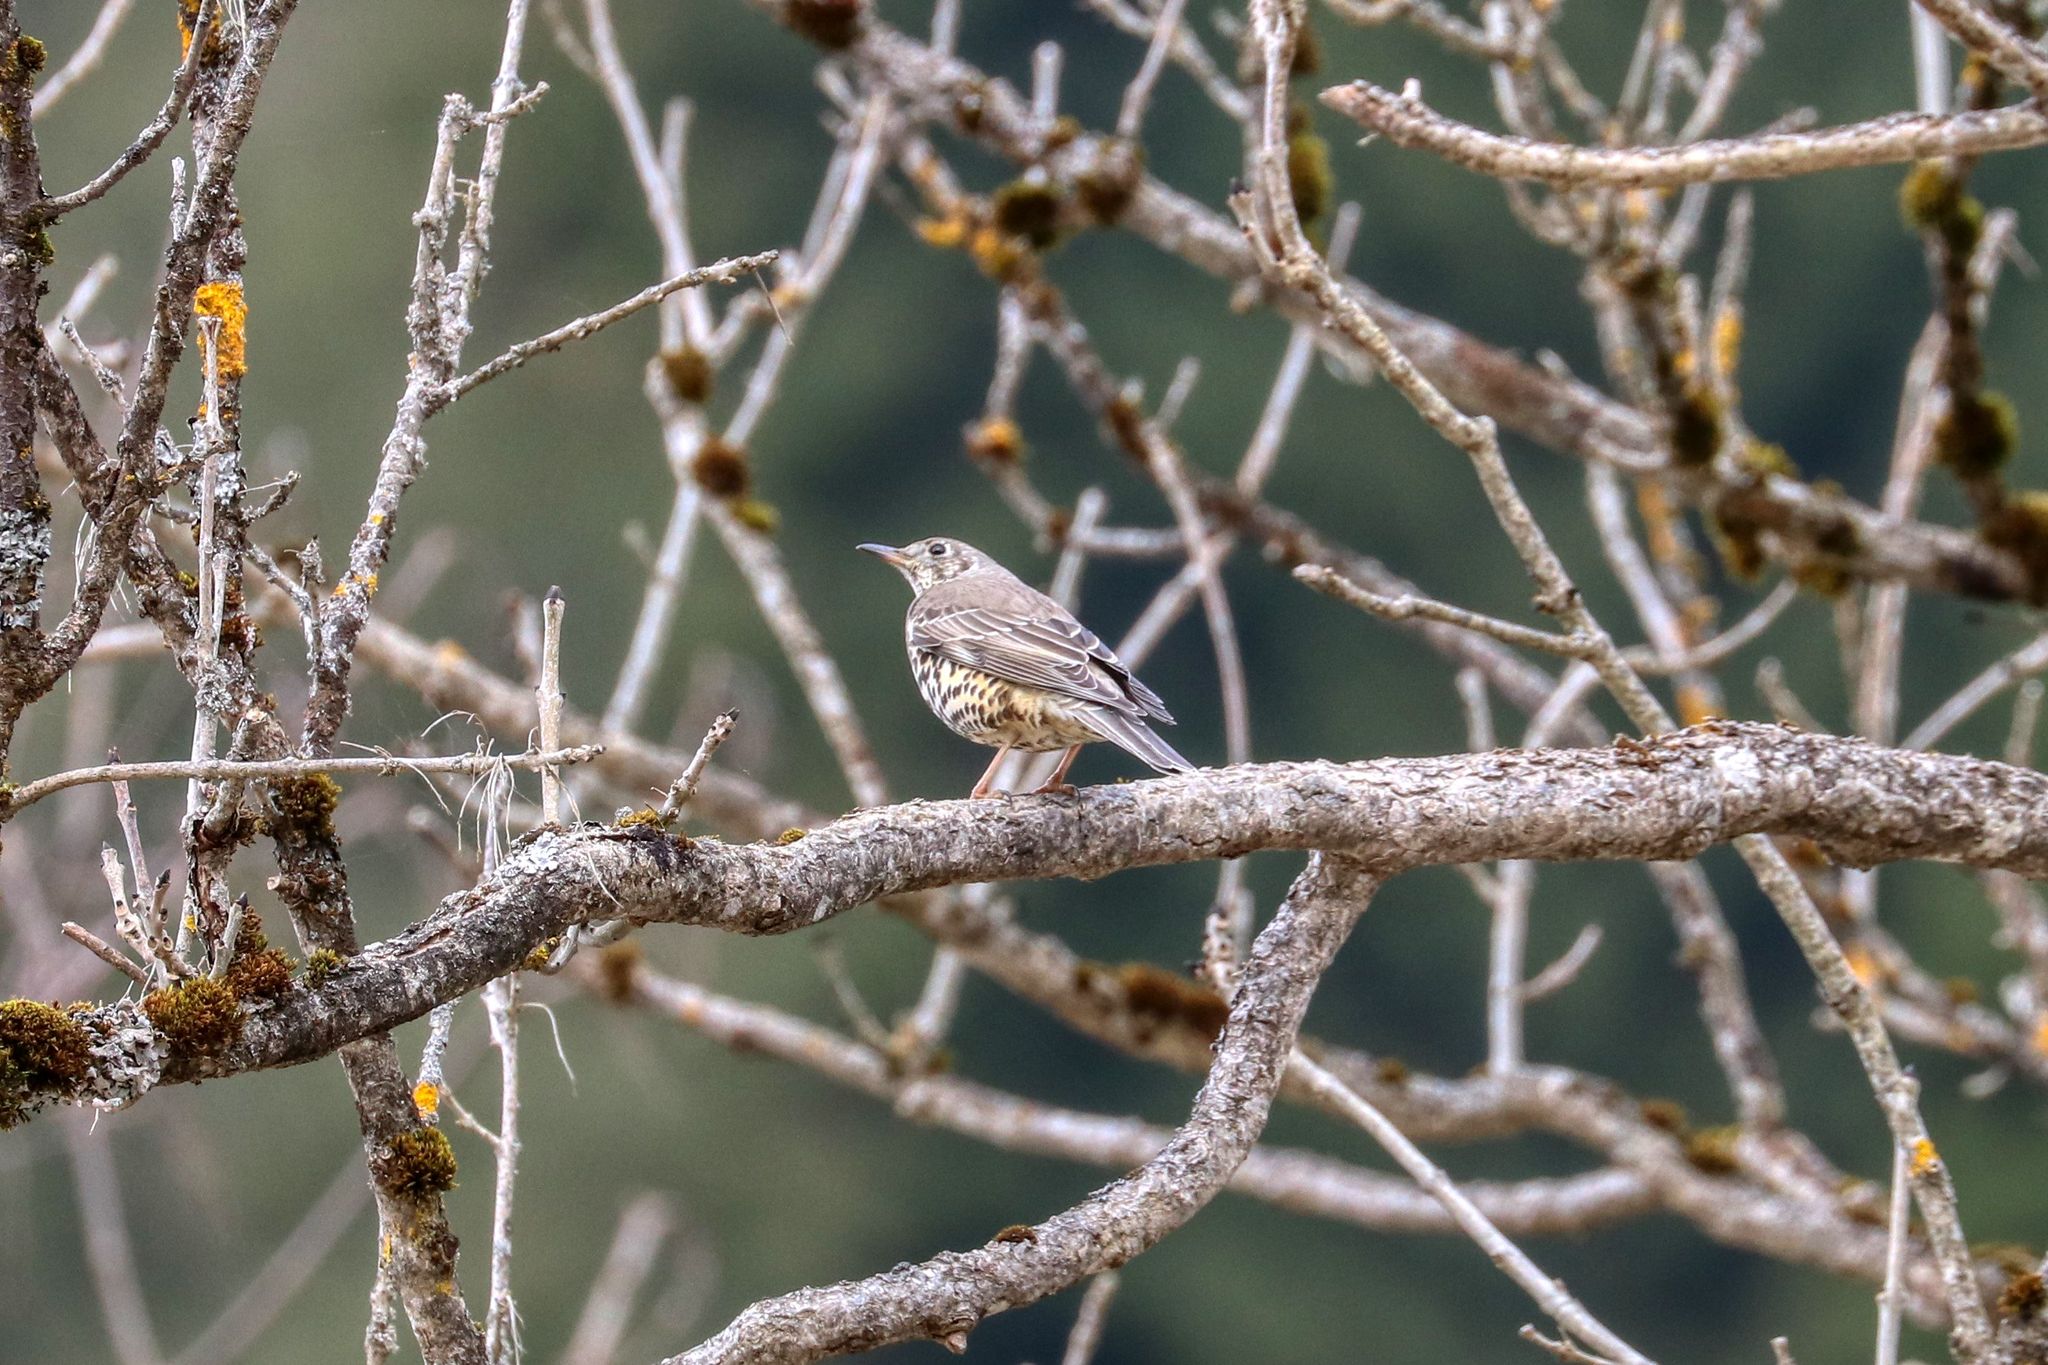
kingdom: Animalia
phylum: Chordata
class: Aves
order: Passeriformes
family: Turdidae
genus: Turdus
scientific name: Turdus viscivorus
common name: Mistle thrush
